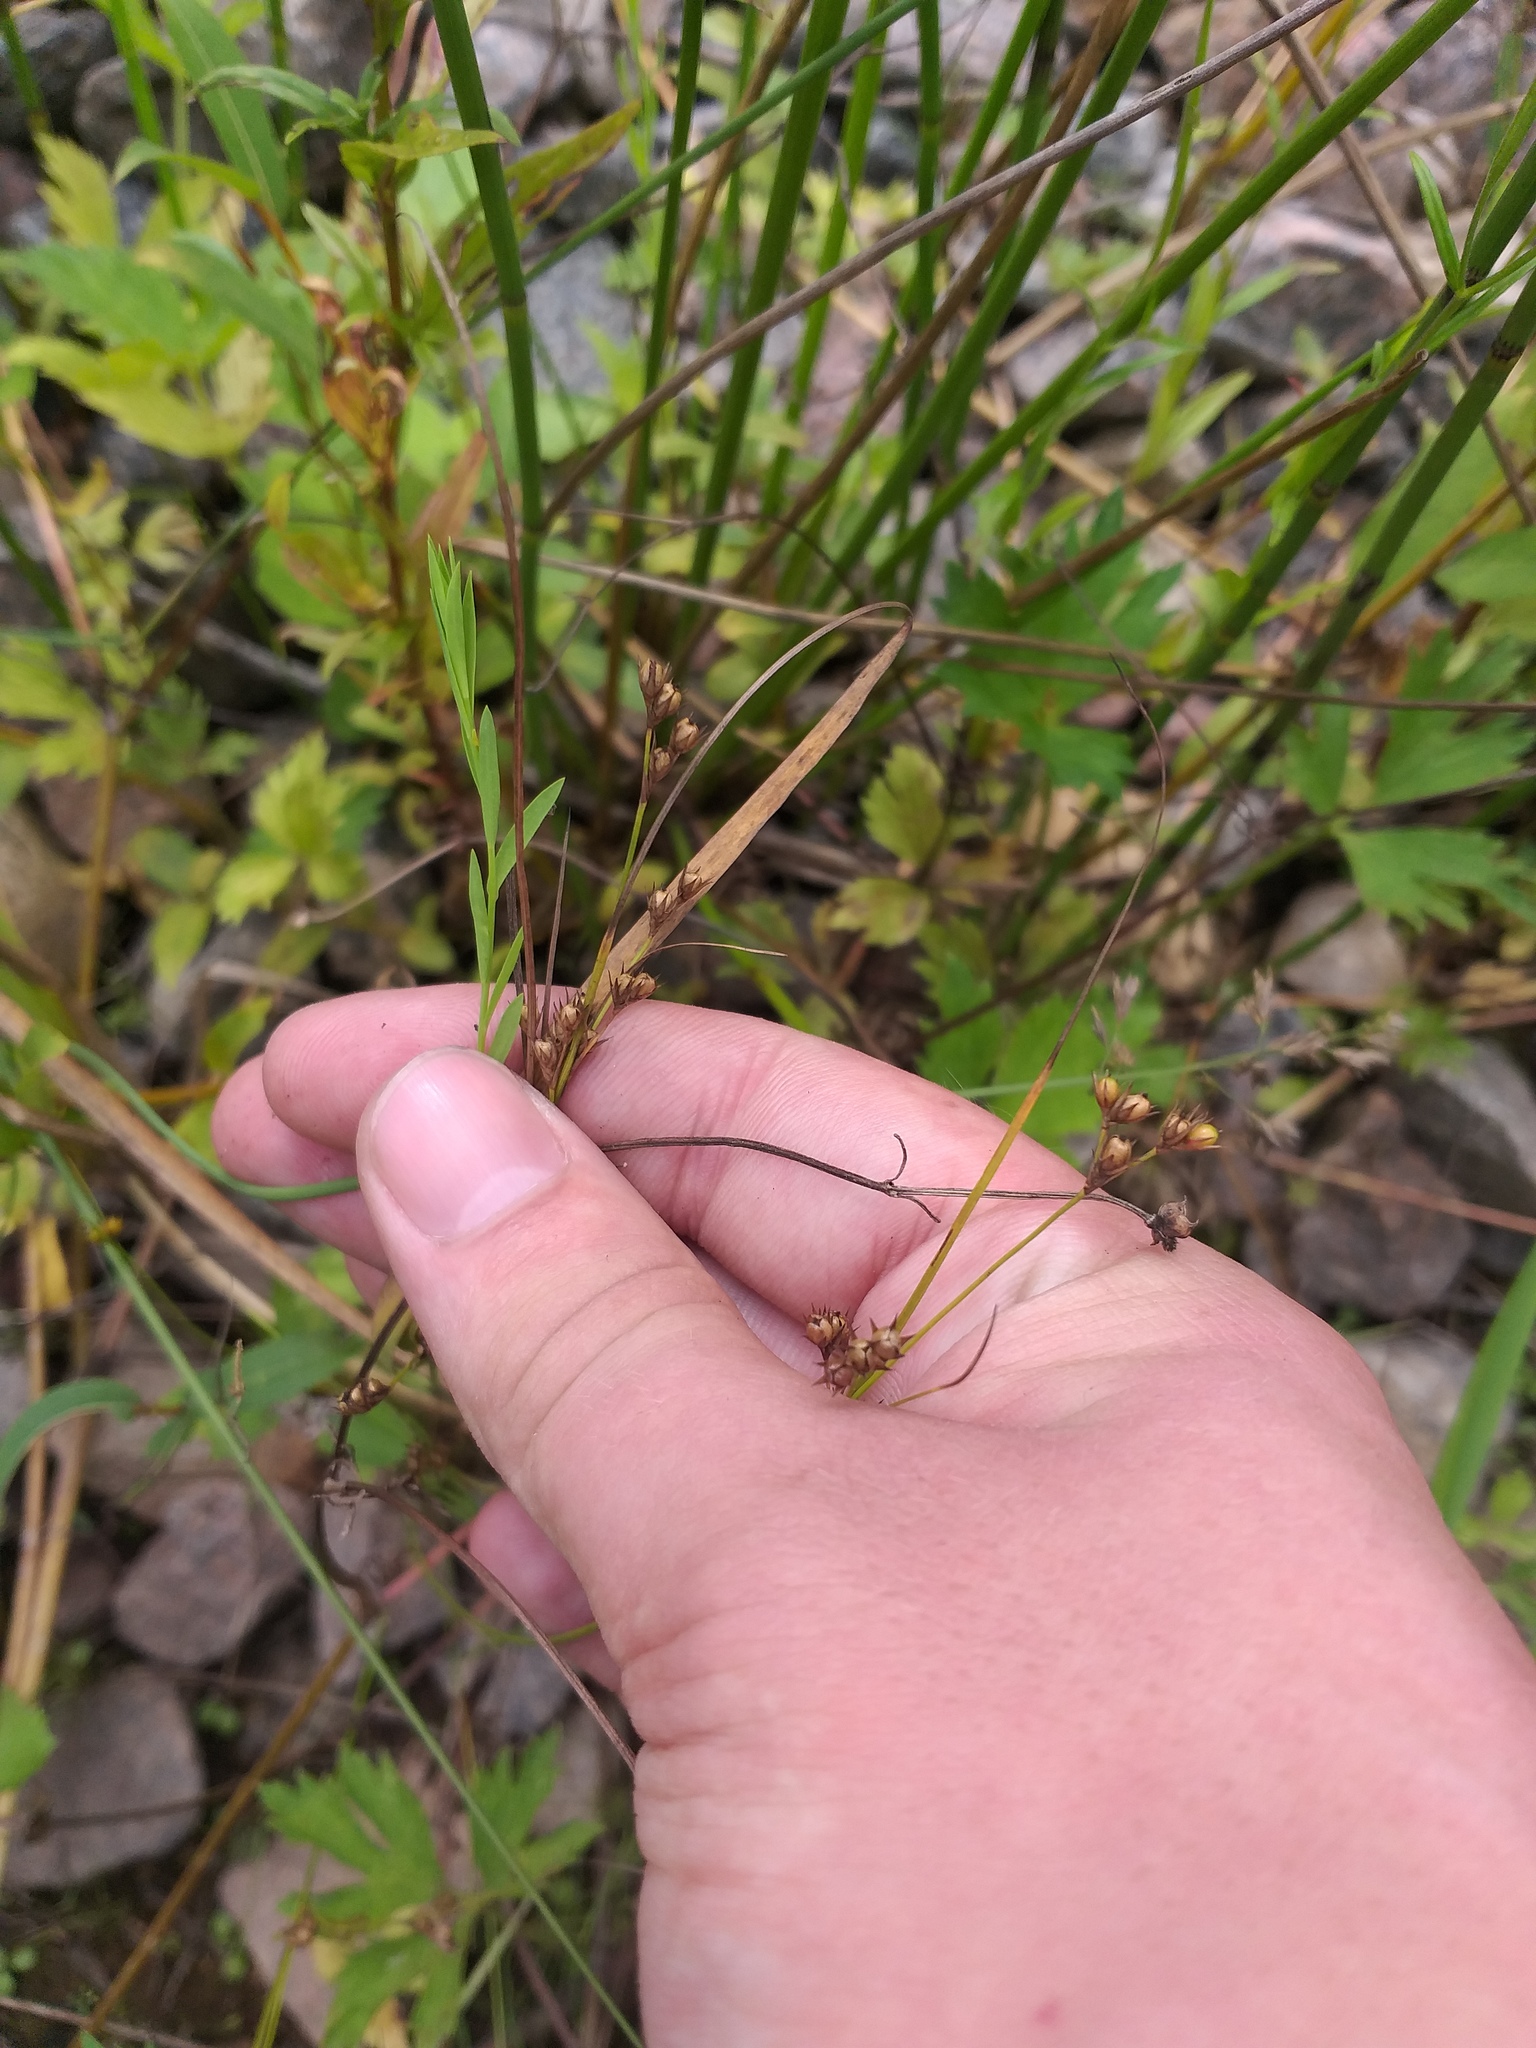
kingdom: Plantae
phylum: Tracheophyta
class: Liliopsida
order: Poales
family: Juncaceae
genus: Juncus
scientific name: Juncus tenuis
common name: Slender rush
